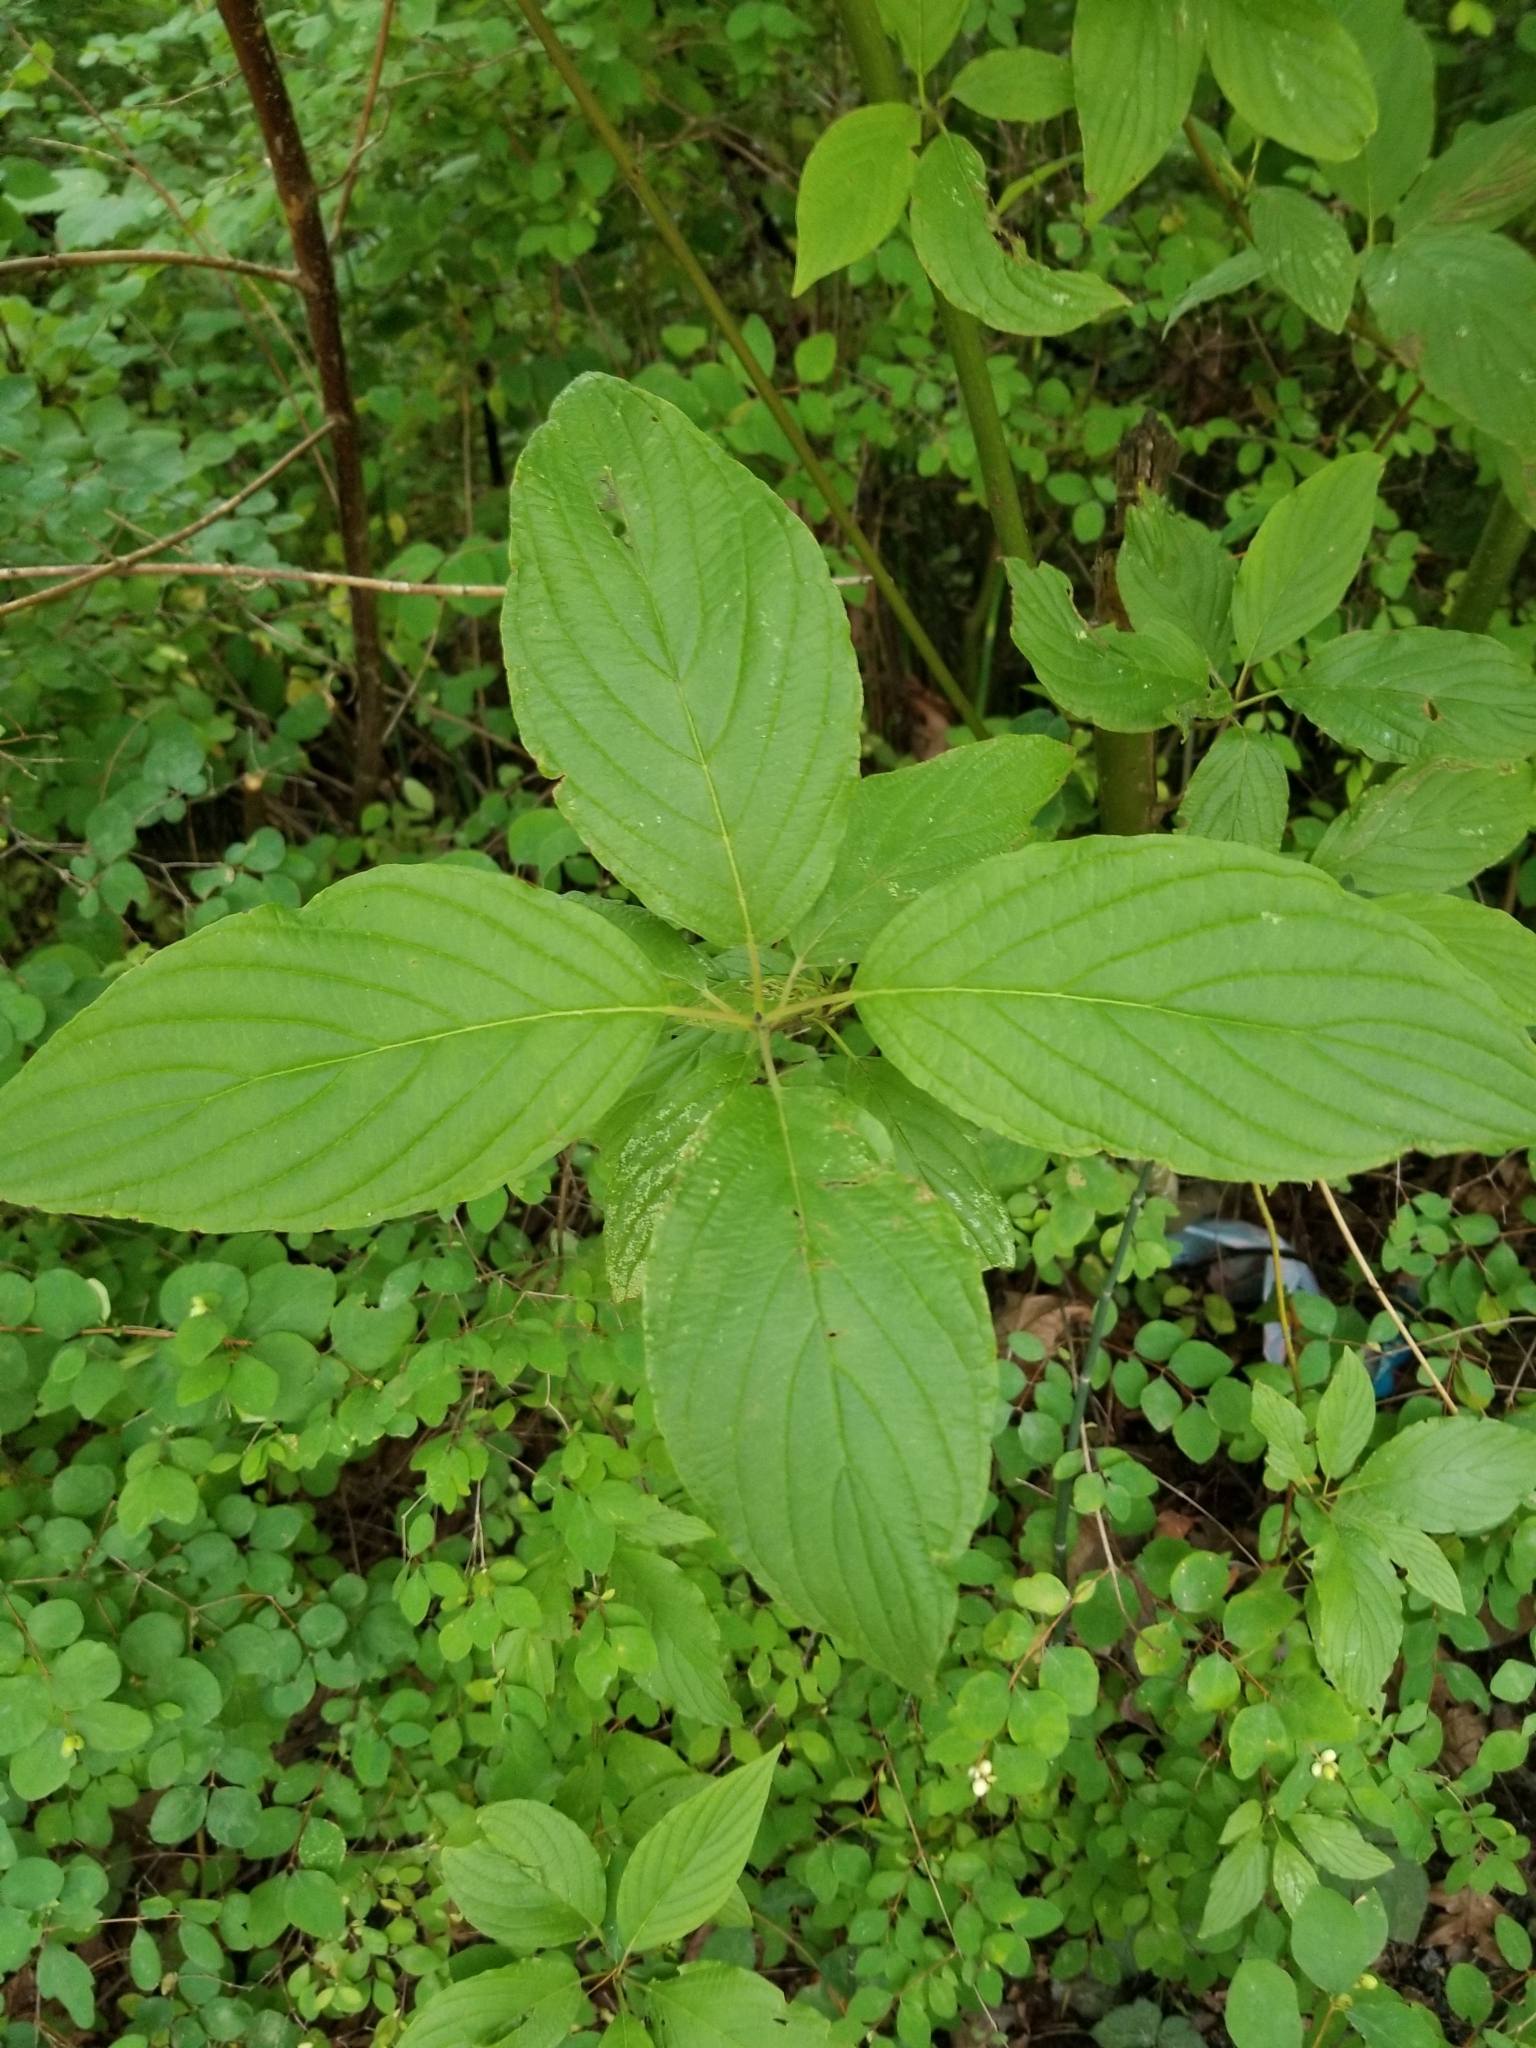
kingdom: Plantae
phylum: Tracheophyta
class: Magnoliopsida
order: Cornales
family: Cornaceae
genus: Cornus
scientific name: Cornus sericea
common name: Red-osier dogwood
